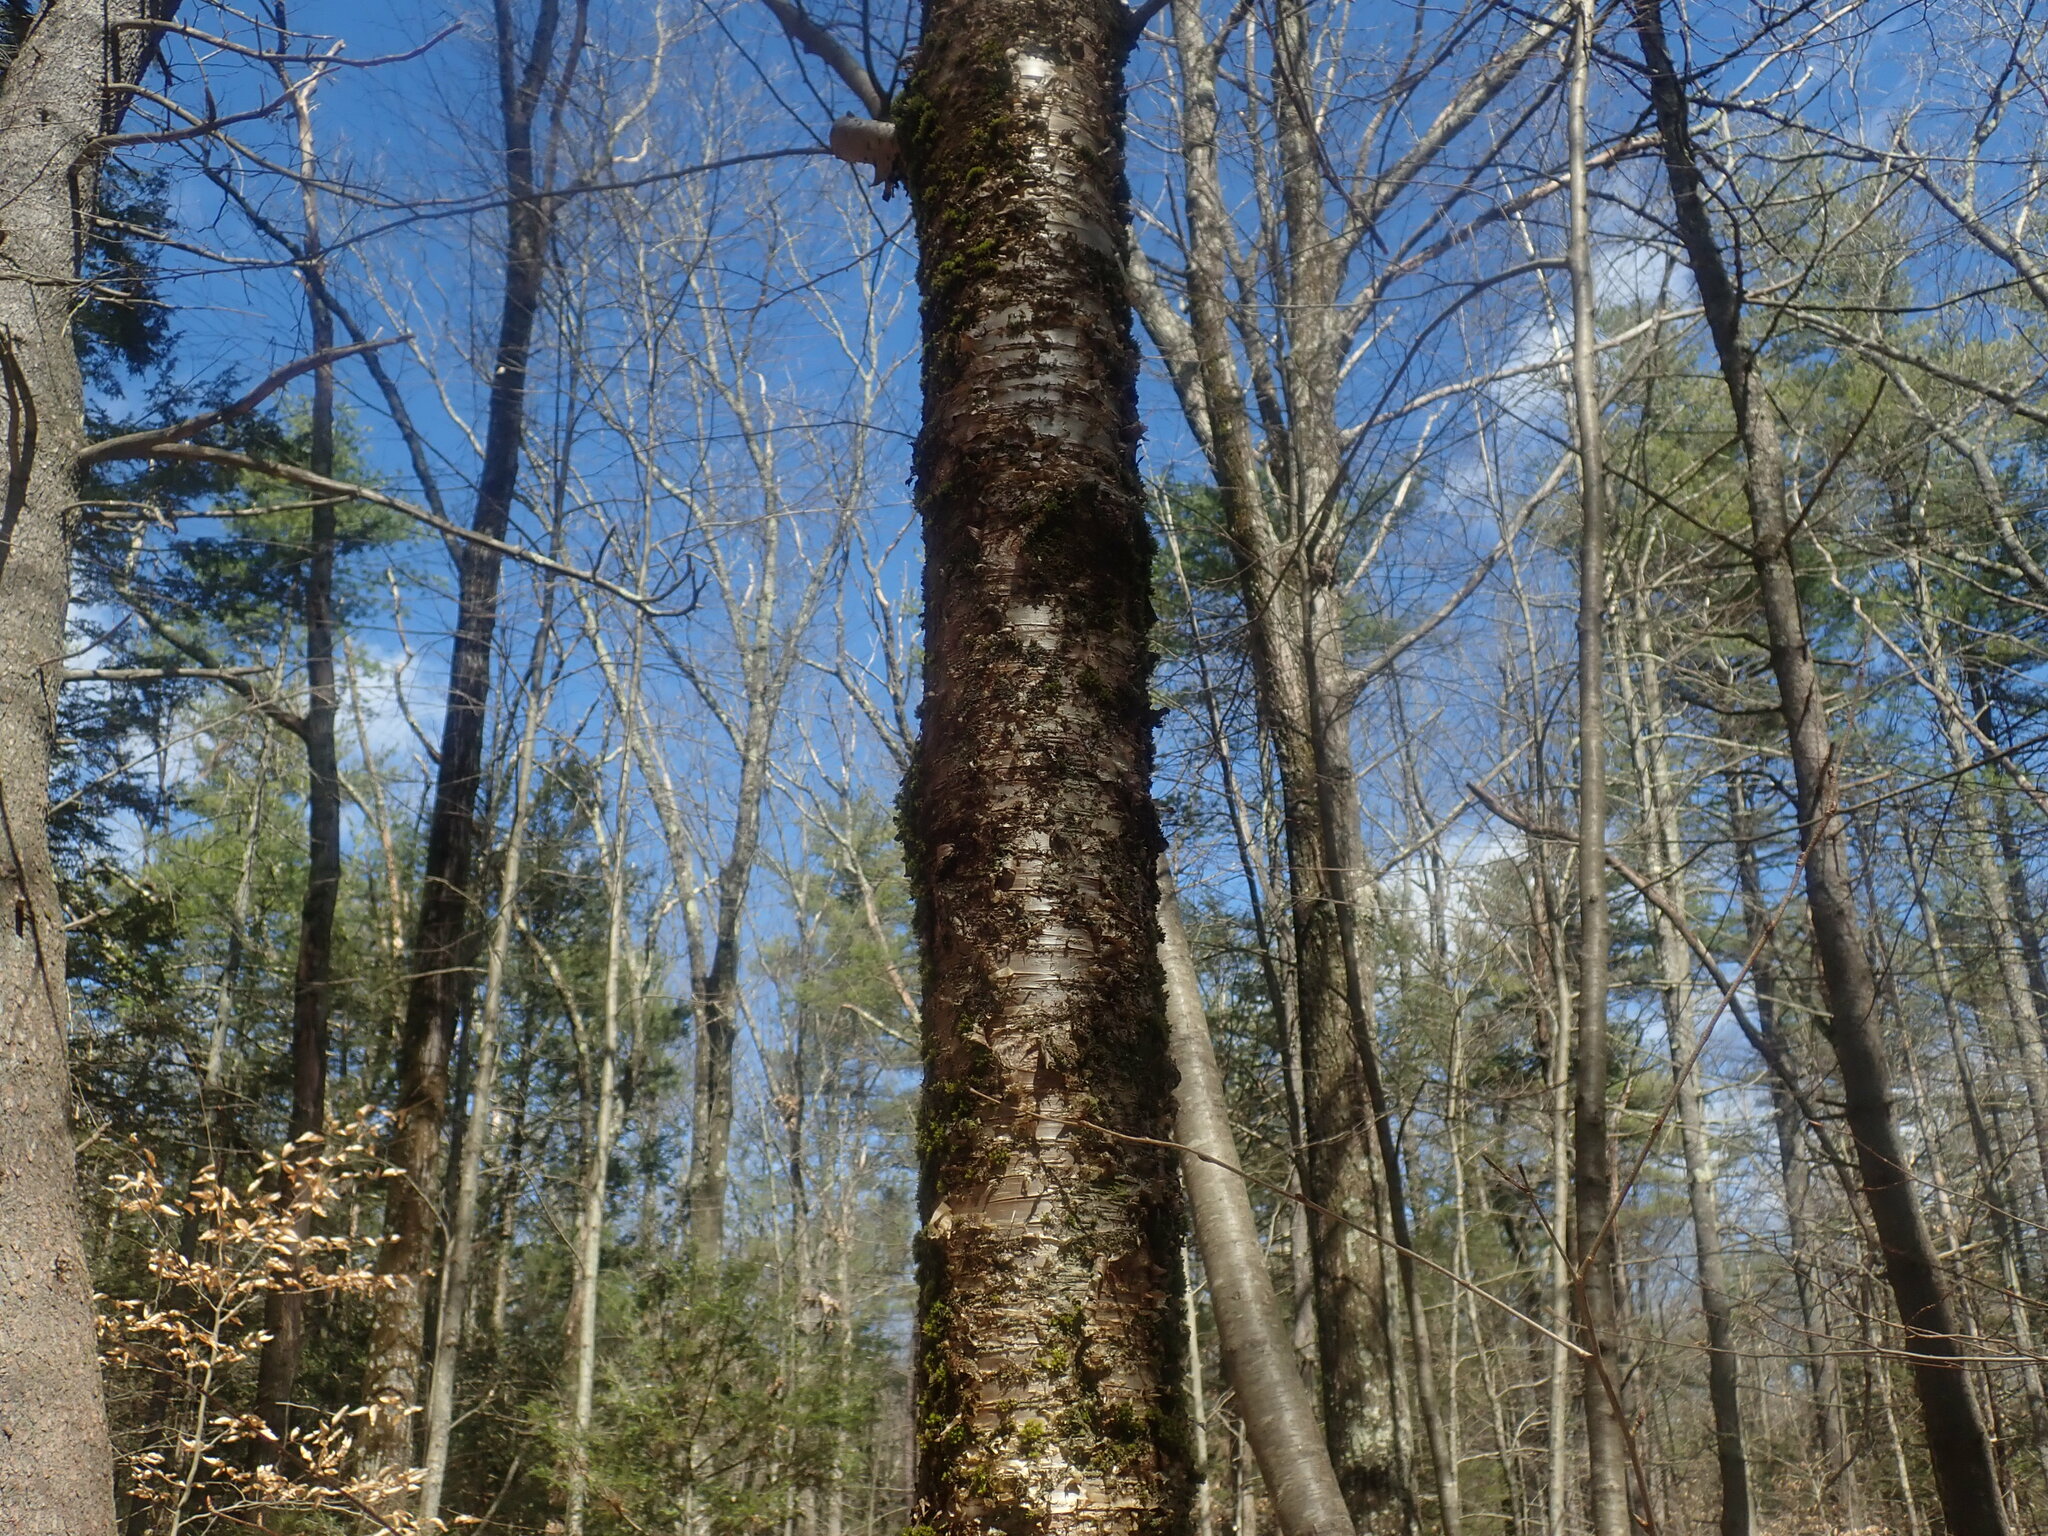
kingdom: Plantae
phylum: Tracheophyta
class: Magnoliopsida
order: Fagales
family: Betulaceae
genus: Betula
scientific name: Betula alleghaniensis
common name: Yellow birch
